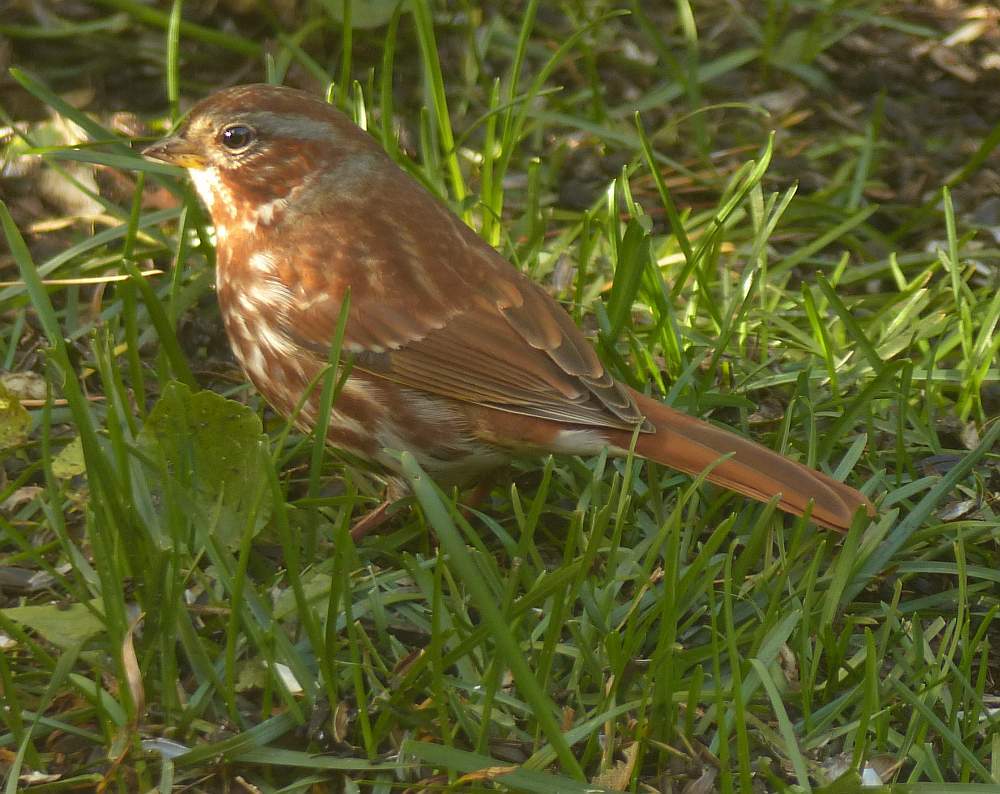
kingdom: Animalia
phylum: Chordata
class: Aves
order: Passeriformes
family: Passerellidae
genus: Passerella
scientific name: Passerella iliaca
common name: Fox sparrow
